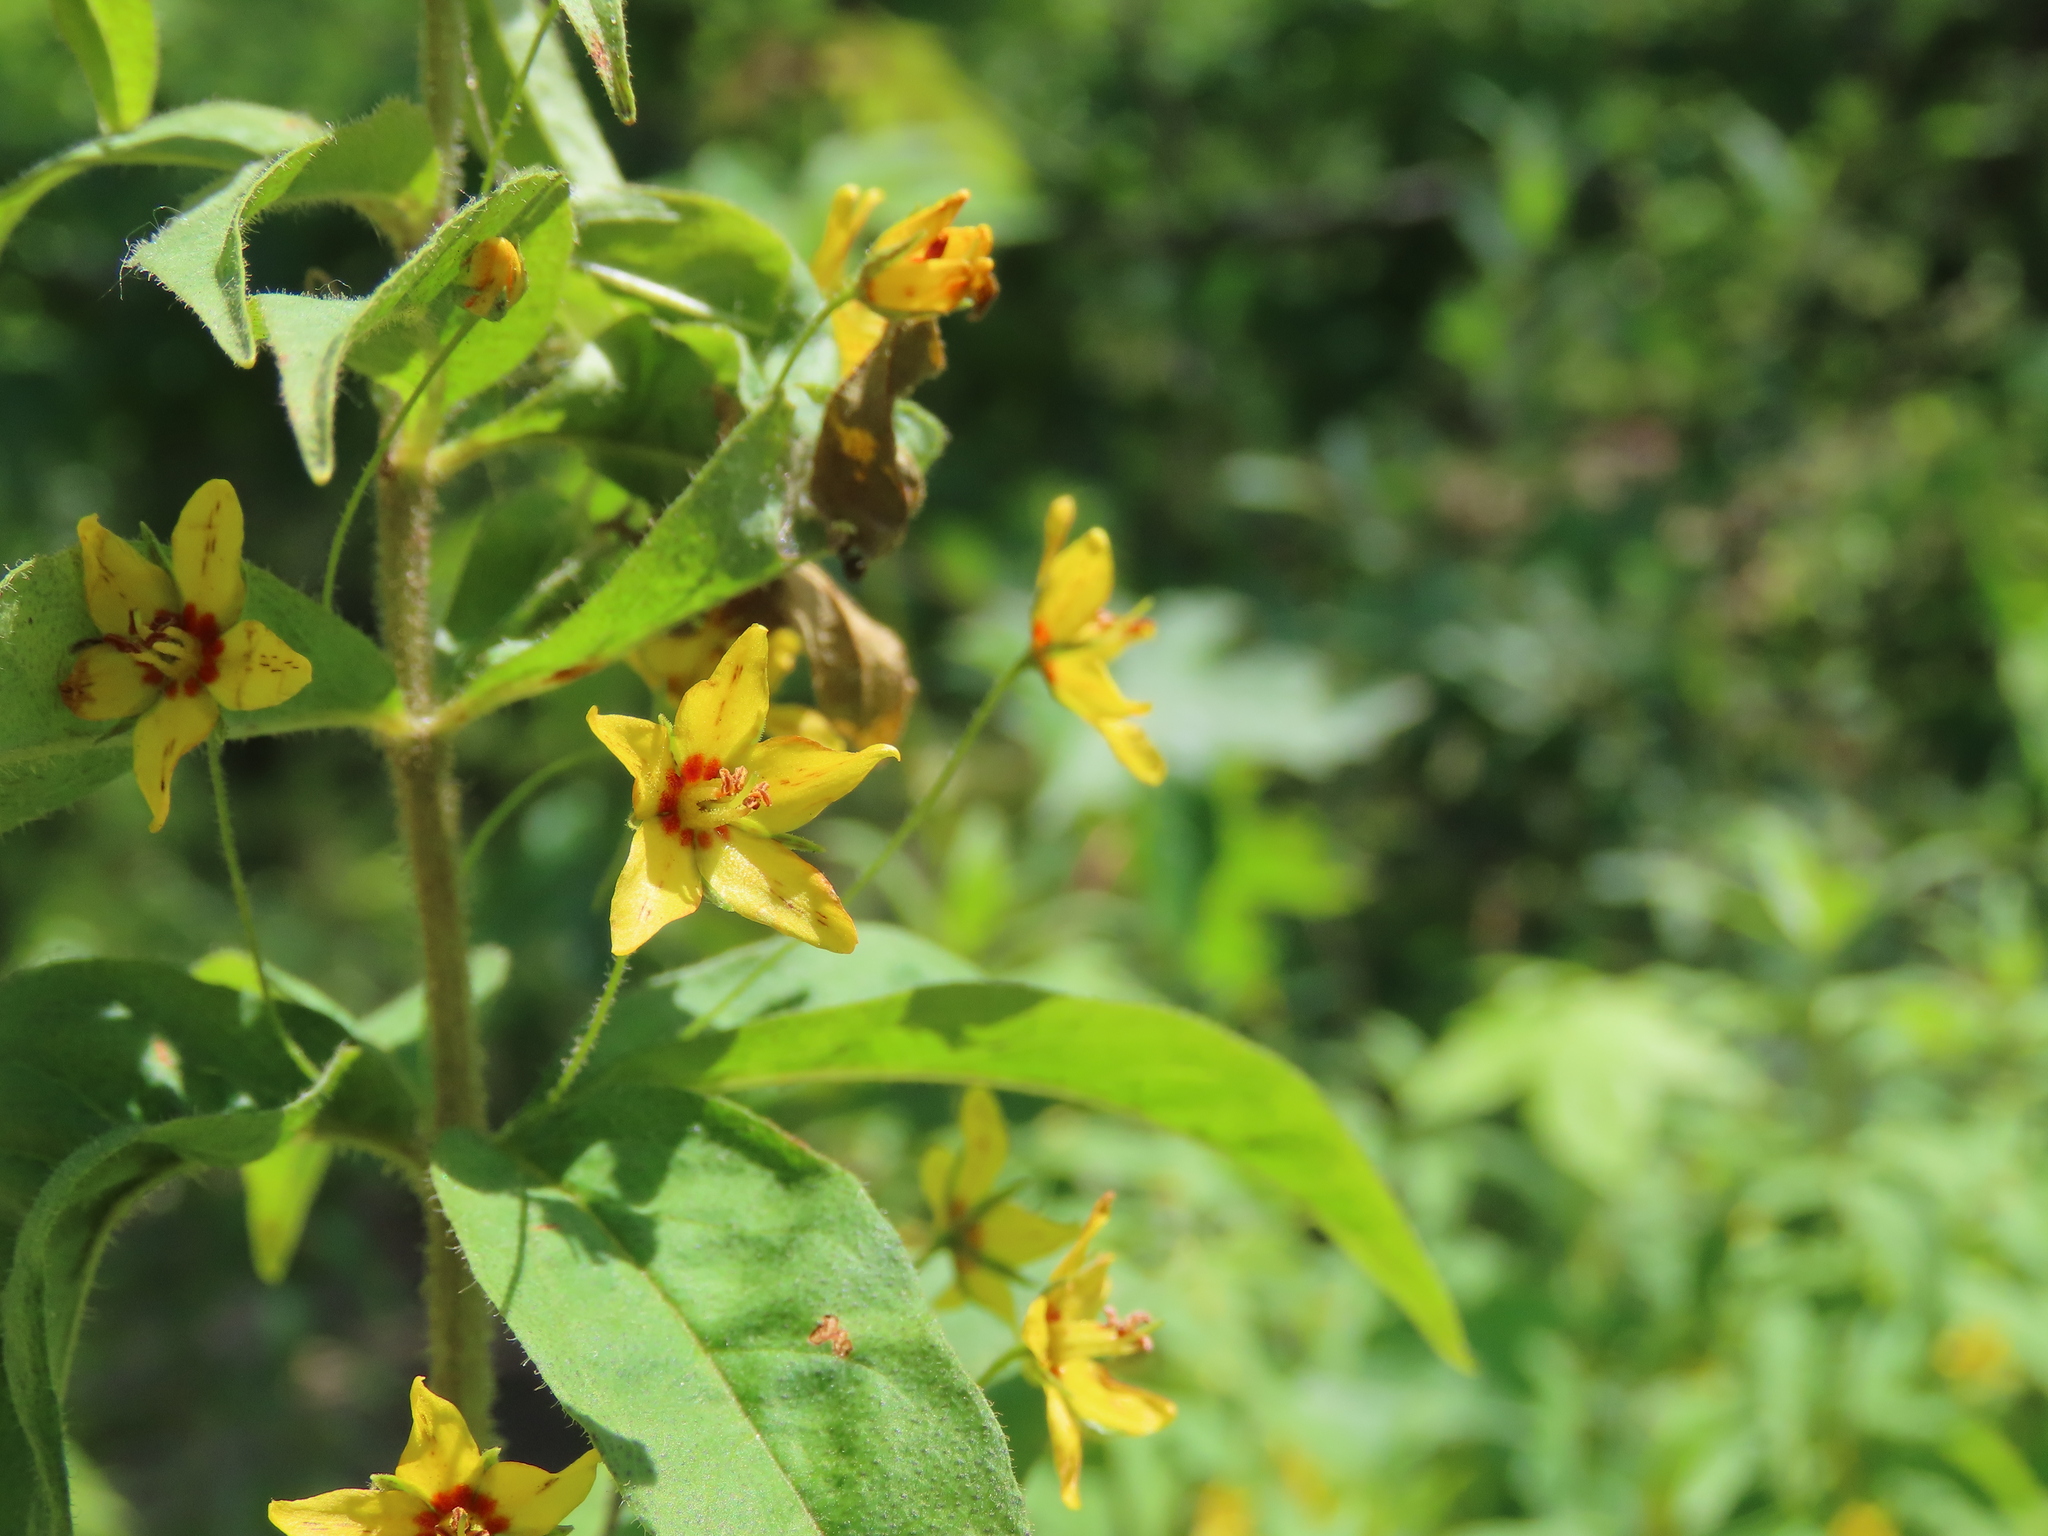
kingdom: Plantae
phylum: Tracheophyta
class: Magnoliopsida
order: Ericales
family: Primulaceae
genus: Lysimachia
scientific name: Lysimachia quadrifolia
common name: Whorled loosestrife
